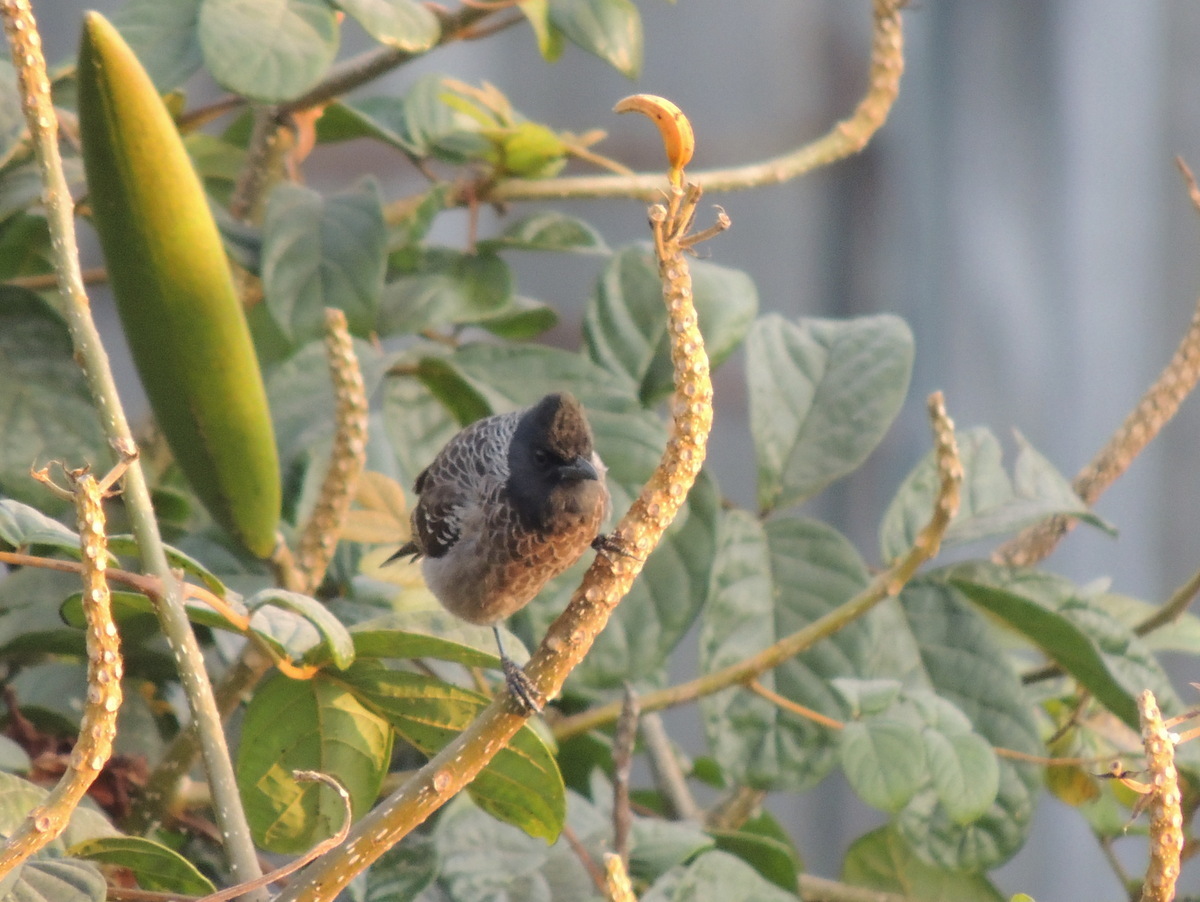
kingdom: Animalia
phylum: Chordata
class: Aves
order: Passeriformes
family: Pycnonotidae
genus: Pycnonotus
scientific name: Pycnonotus cafer
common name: Red-vented bulbul
